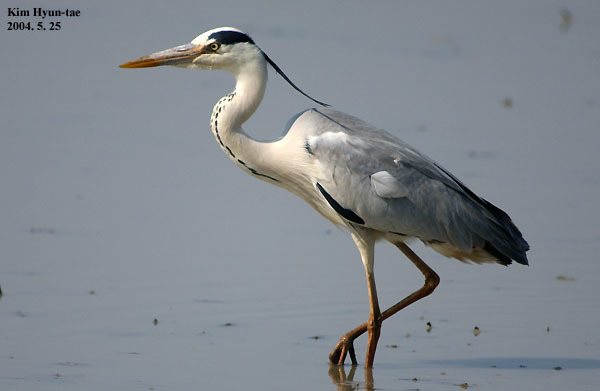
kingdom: Animalia
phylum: Chordata
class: Aves
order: Pelecaniformes
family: Ardeidae
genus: Ardea
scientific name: Ardea cinerea
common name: Grey heron
